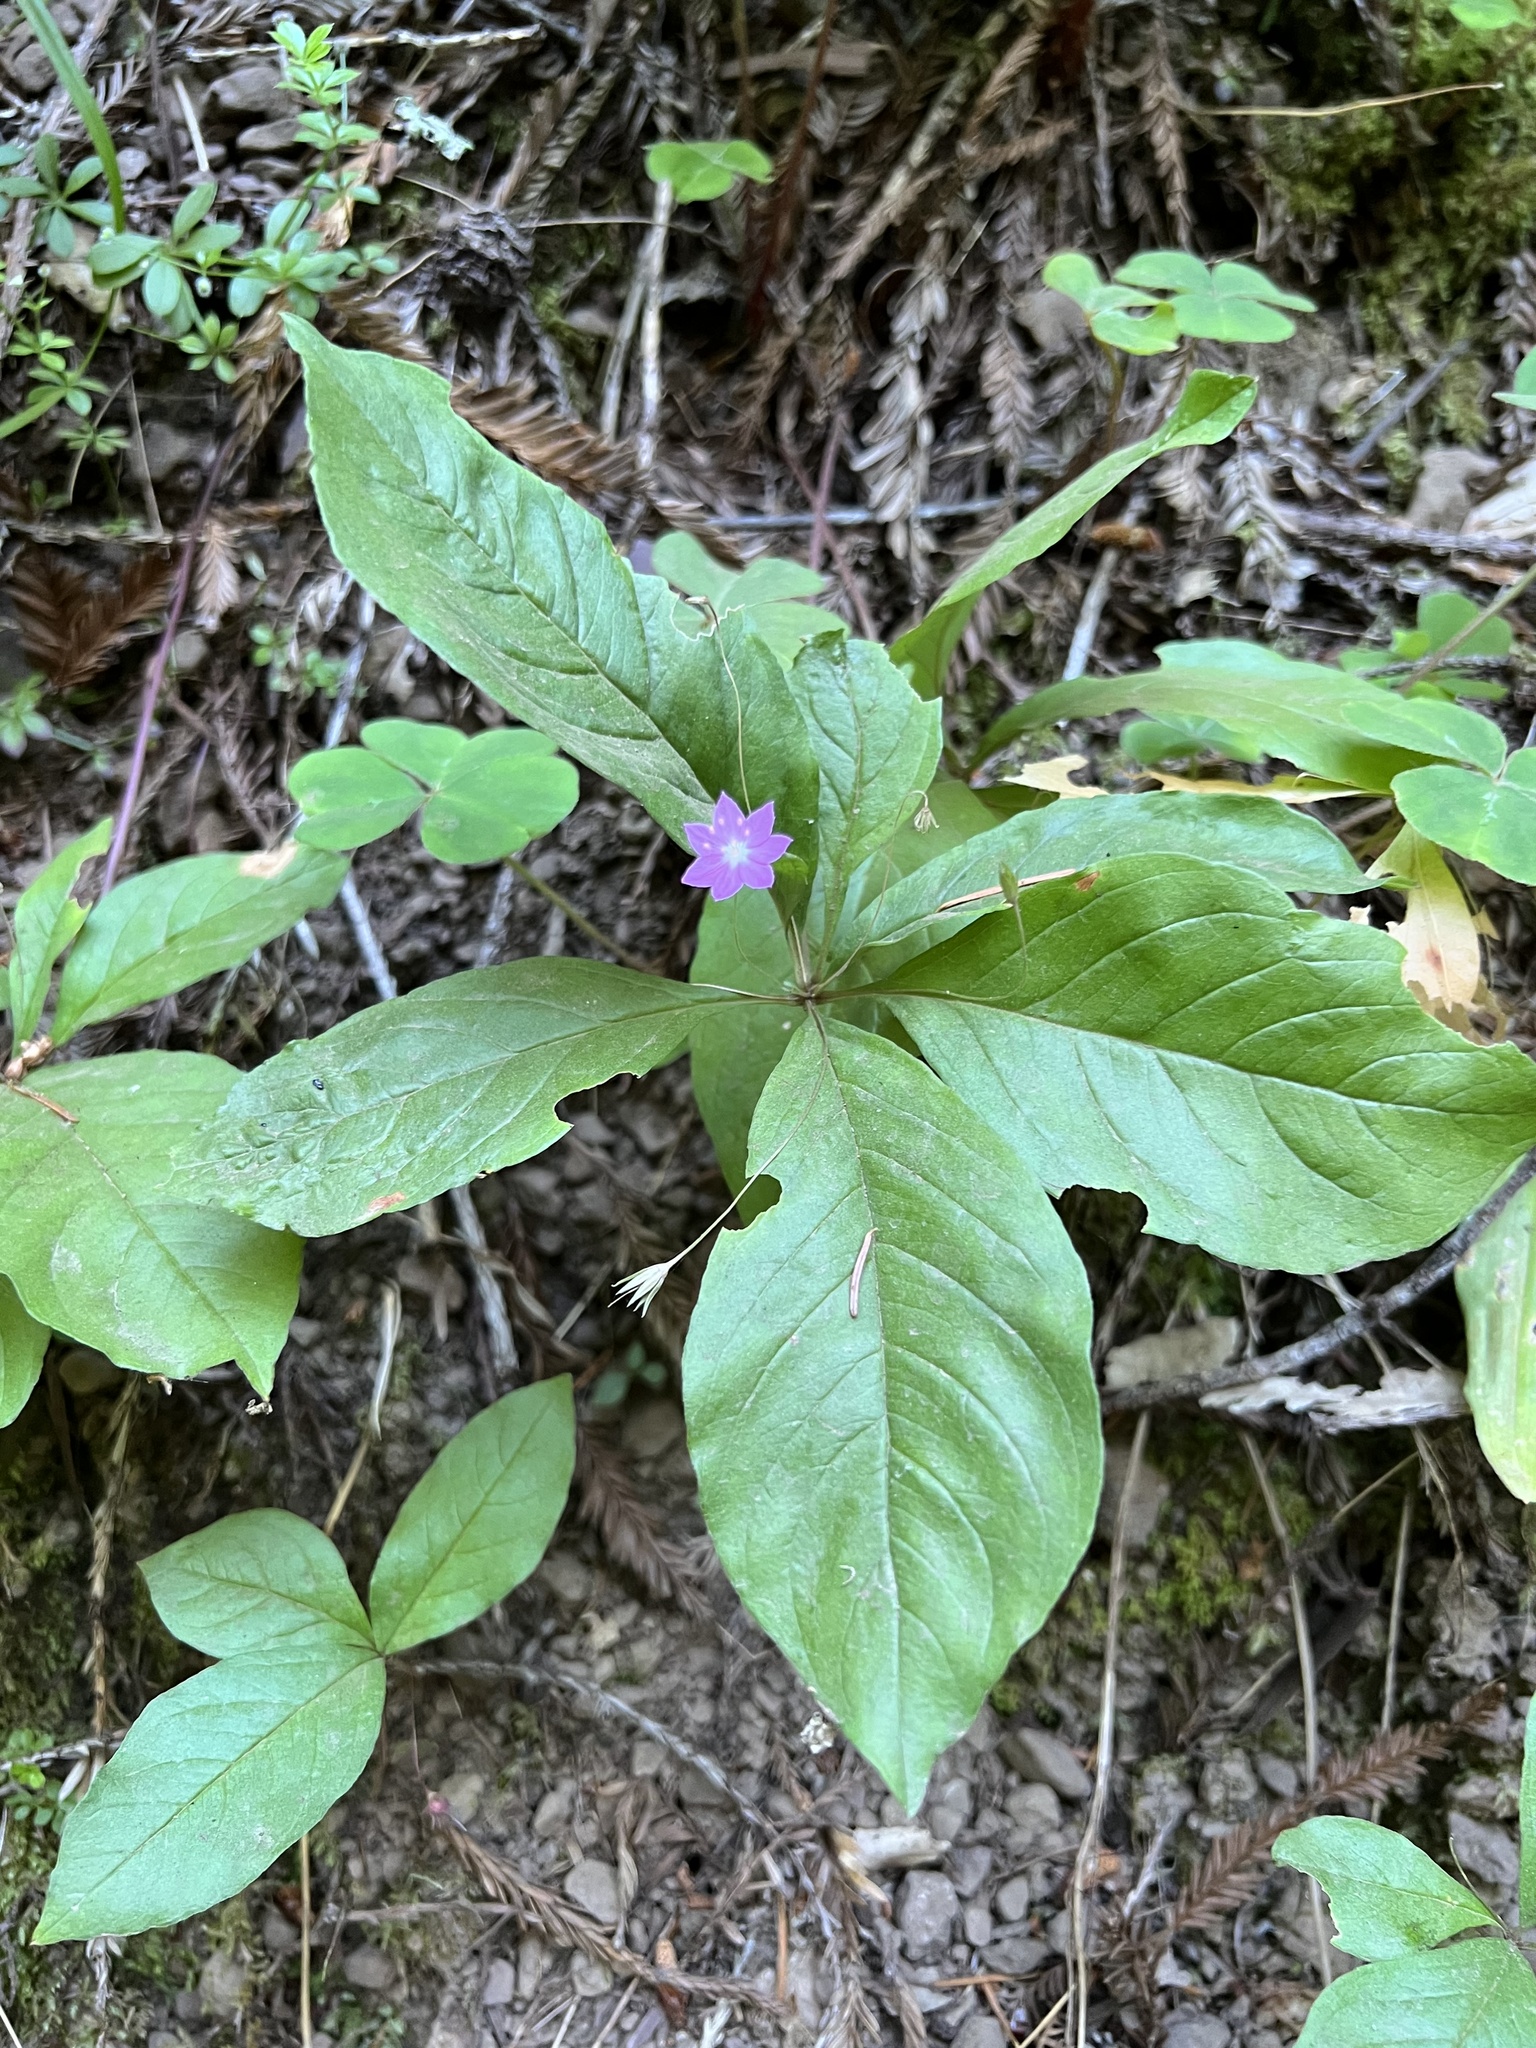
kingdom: Plantae
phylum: Tracheophyta
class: Magnoliopsida
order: Ericales
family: Primulaceae
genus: Lysimachia
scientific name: Lysimachia latifolia
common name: Pacific starflower
